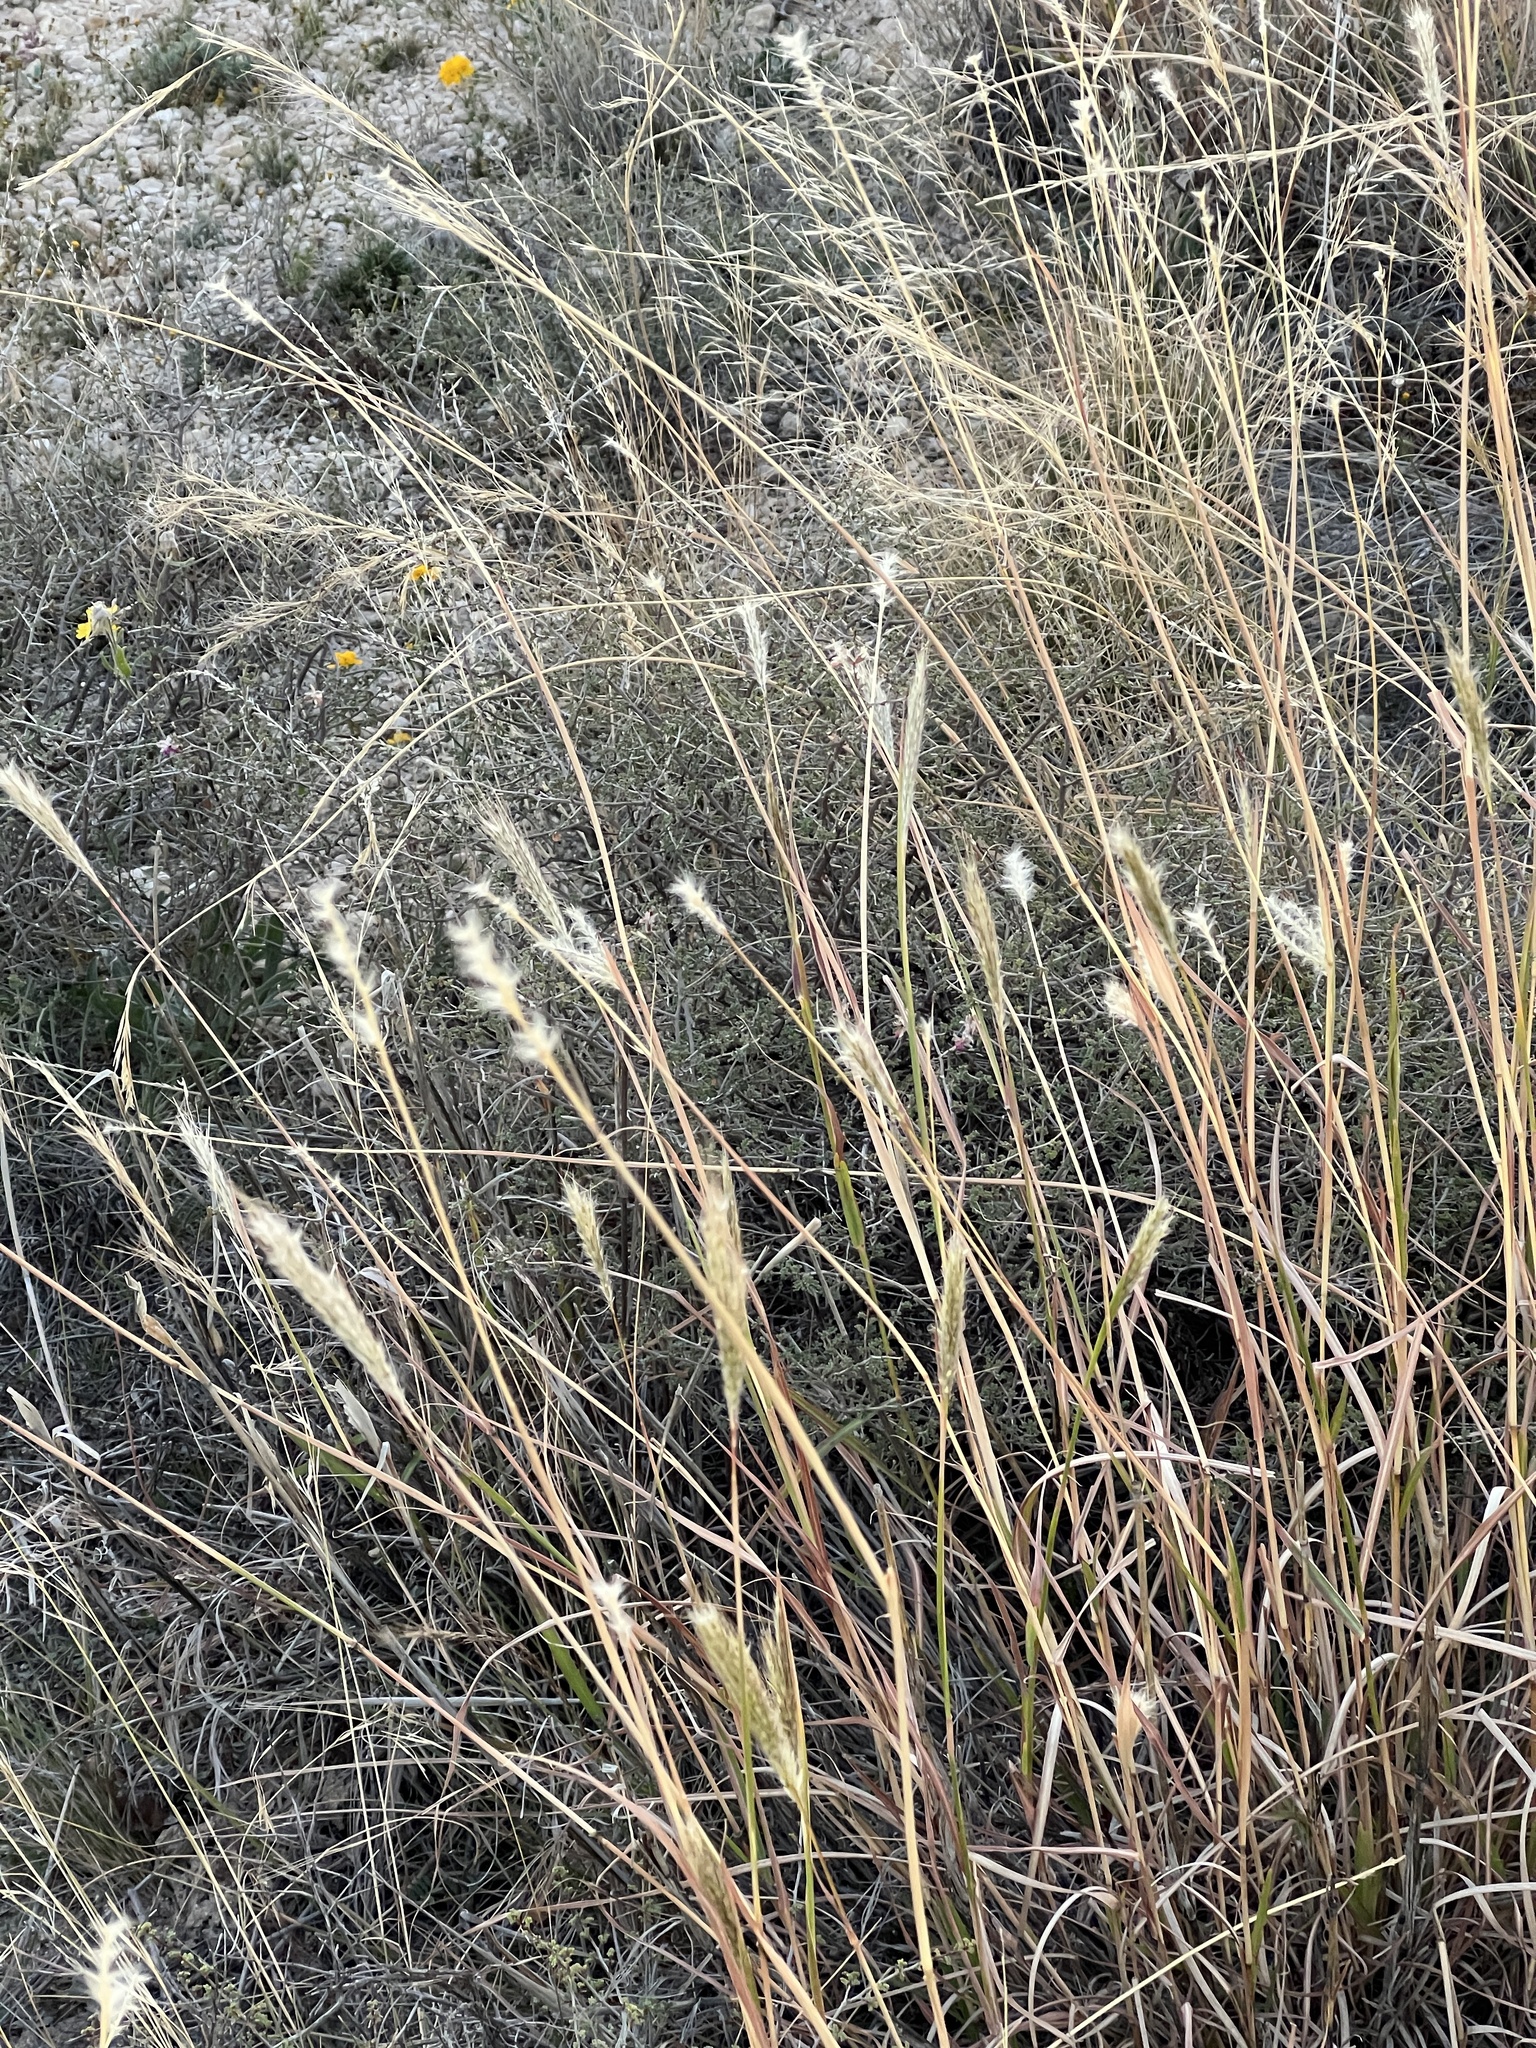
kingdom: Plantae
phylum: Tracheophyta
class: Liliopsida
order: Poales
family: Poaceae
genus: Bothriochloa
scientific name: Bothriochloa barbinodis
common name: Cane bluestem
